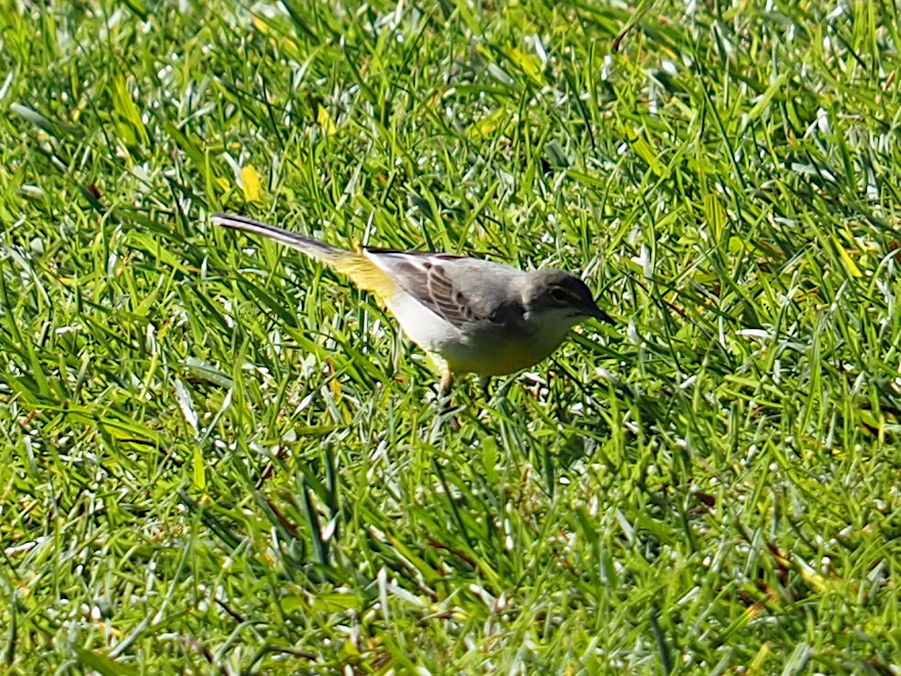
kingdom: Animalia
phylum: Chordata
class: Aves
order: Passeriformes
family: Motacillidae
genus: Motacilla
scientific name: Motacilla cinerea
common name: Grey wagtail
